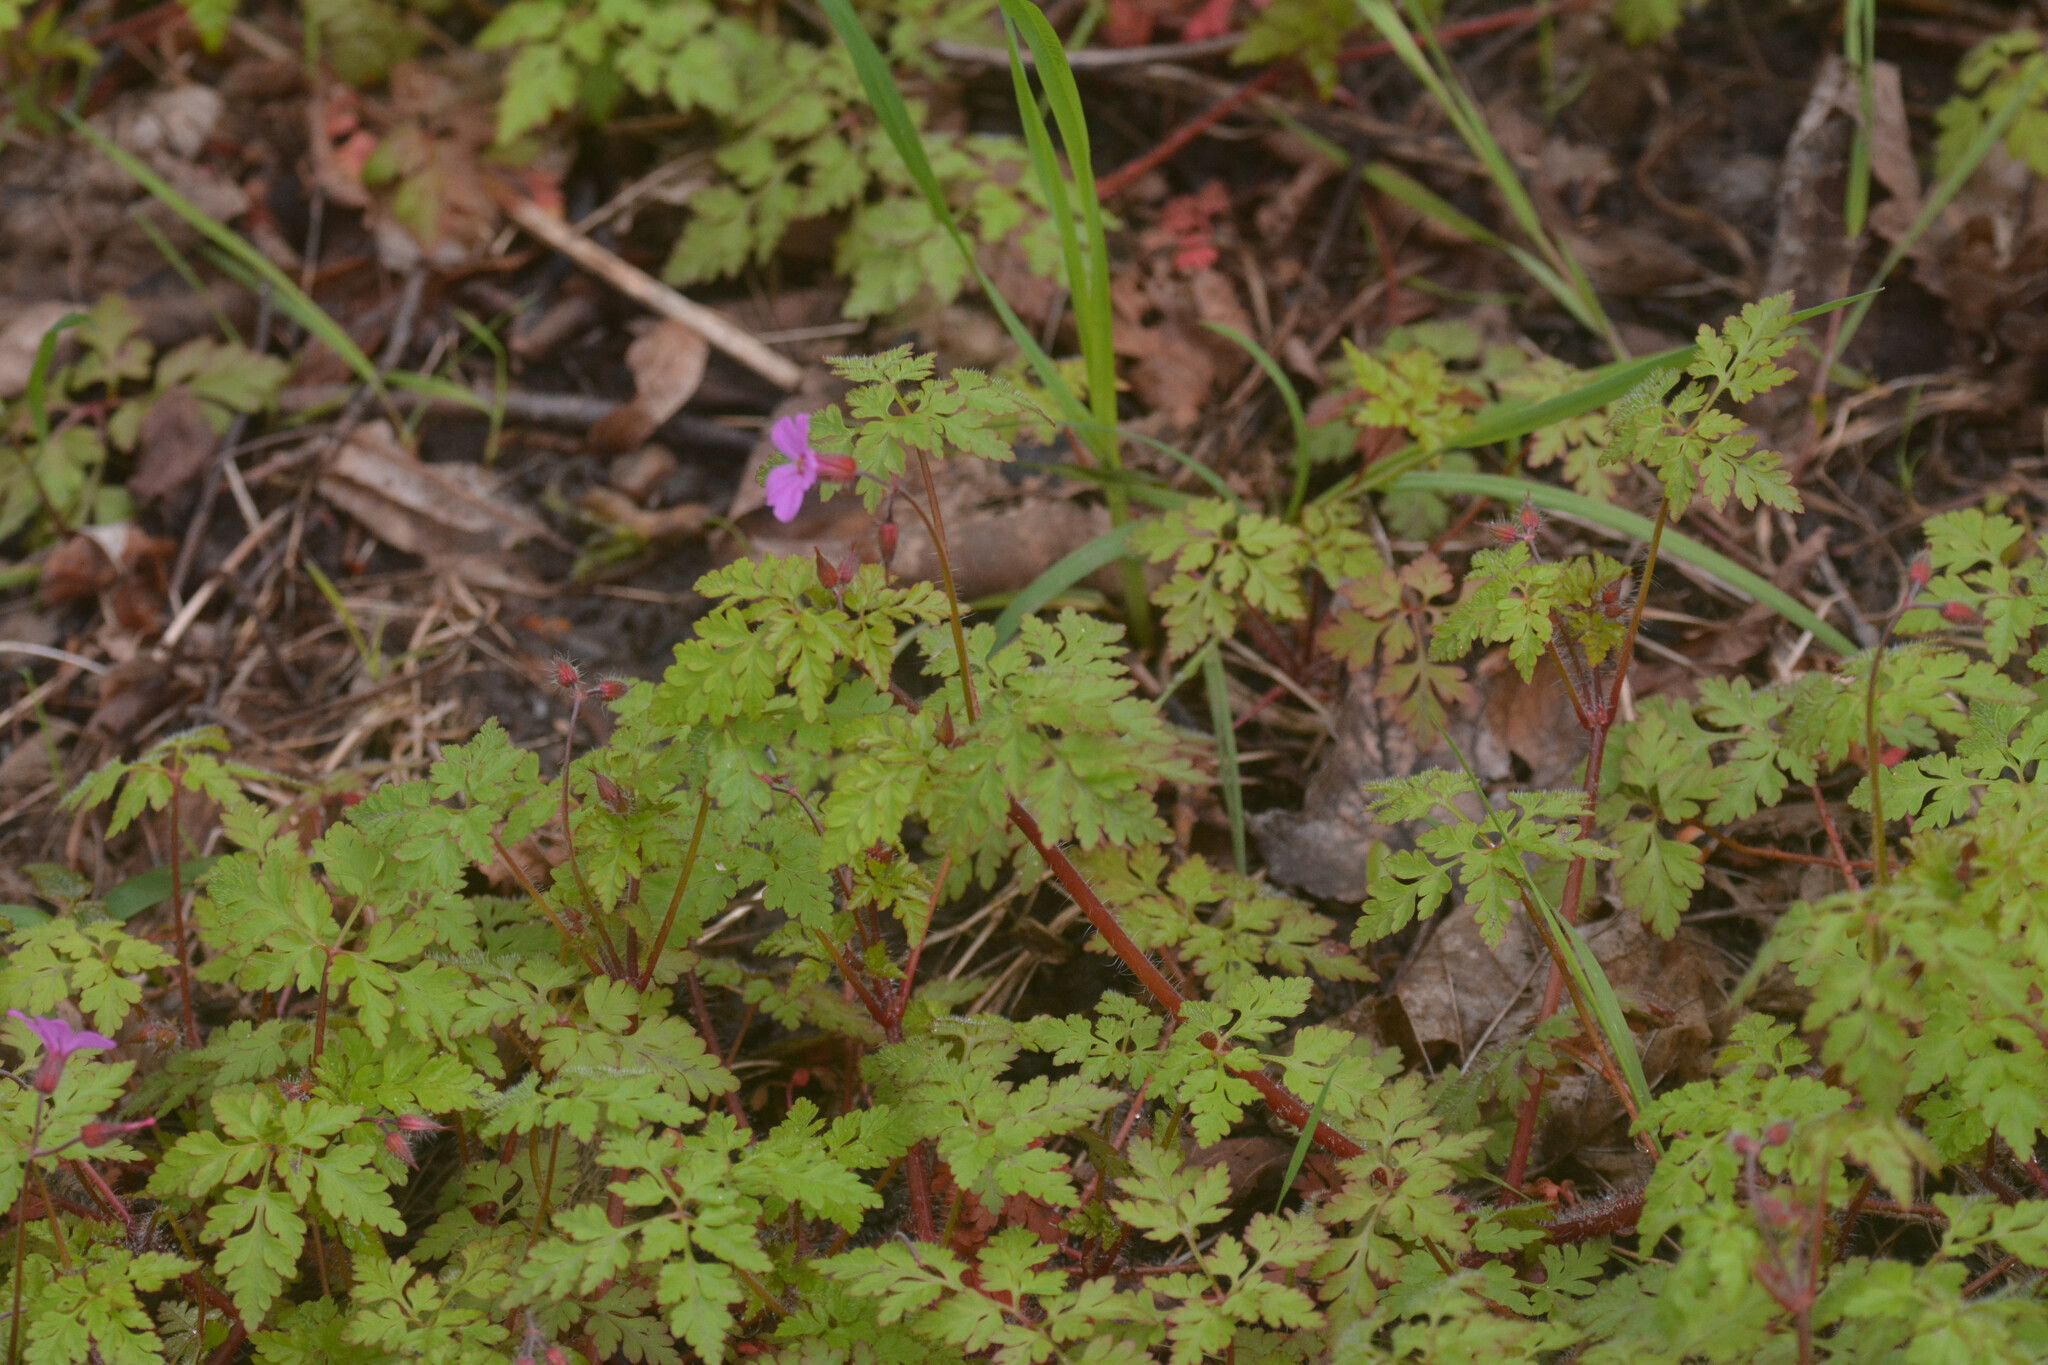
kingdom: Plantae
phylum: Tracheophyta
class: Magnoliopsida
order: Geraniales
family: Geraniaceae
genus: Geranium
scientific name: Geranium robertianum
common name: Herb-robert
